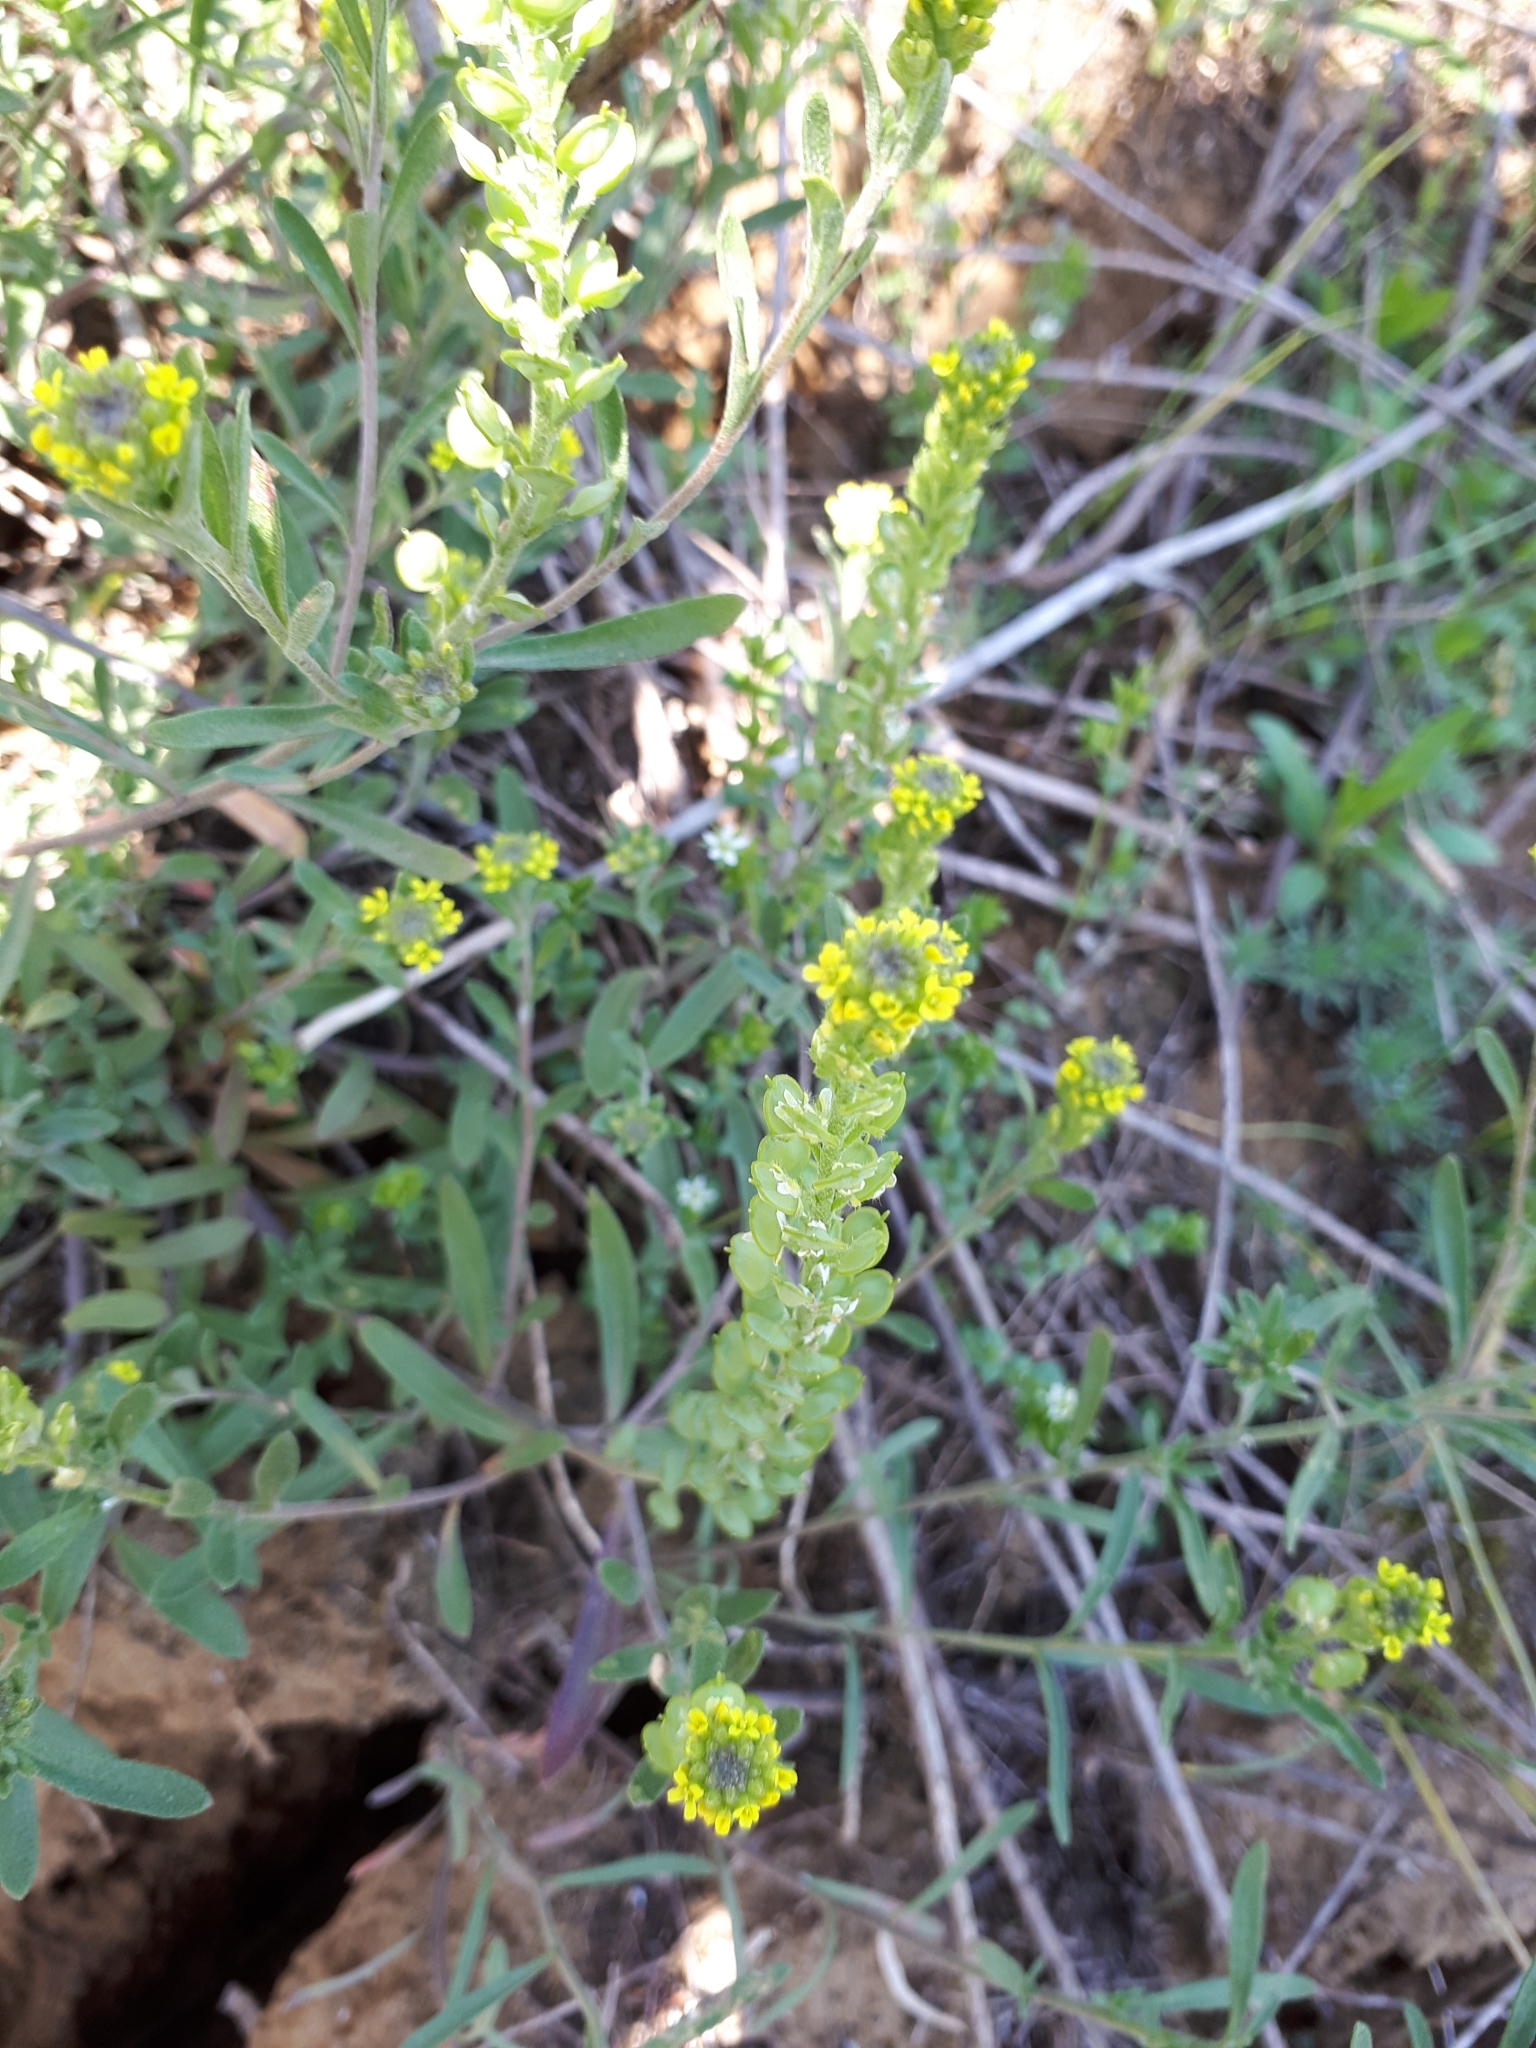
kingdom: Plantae
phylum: Tracheophyta
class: Magnoliopsida
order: Brassicales
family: Brassicaceae
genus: Alyssum
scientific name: Alyssum turkestanicum
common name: Desert alyssum
